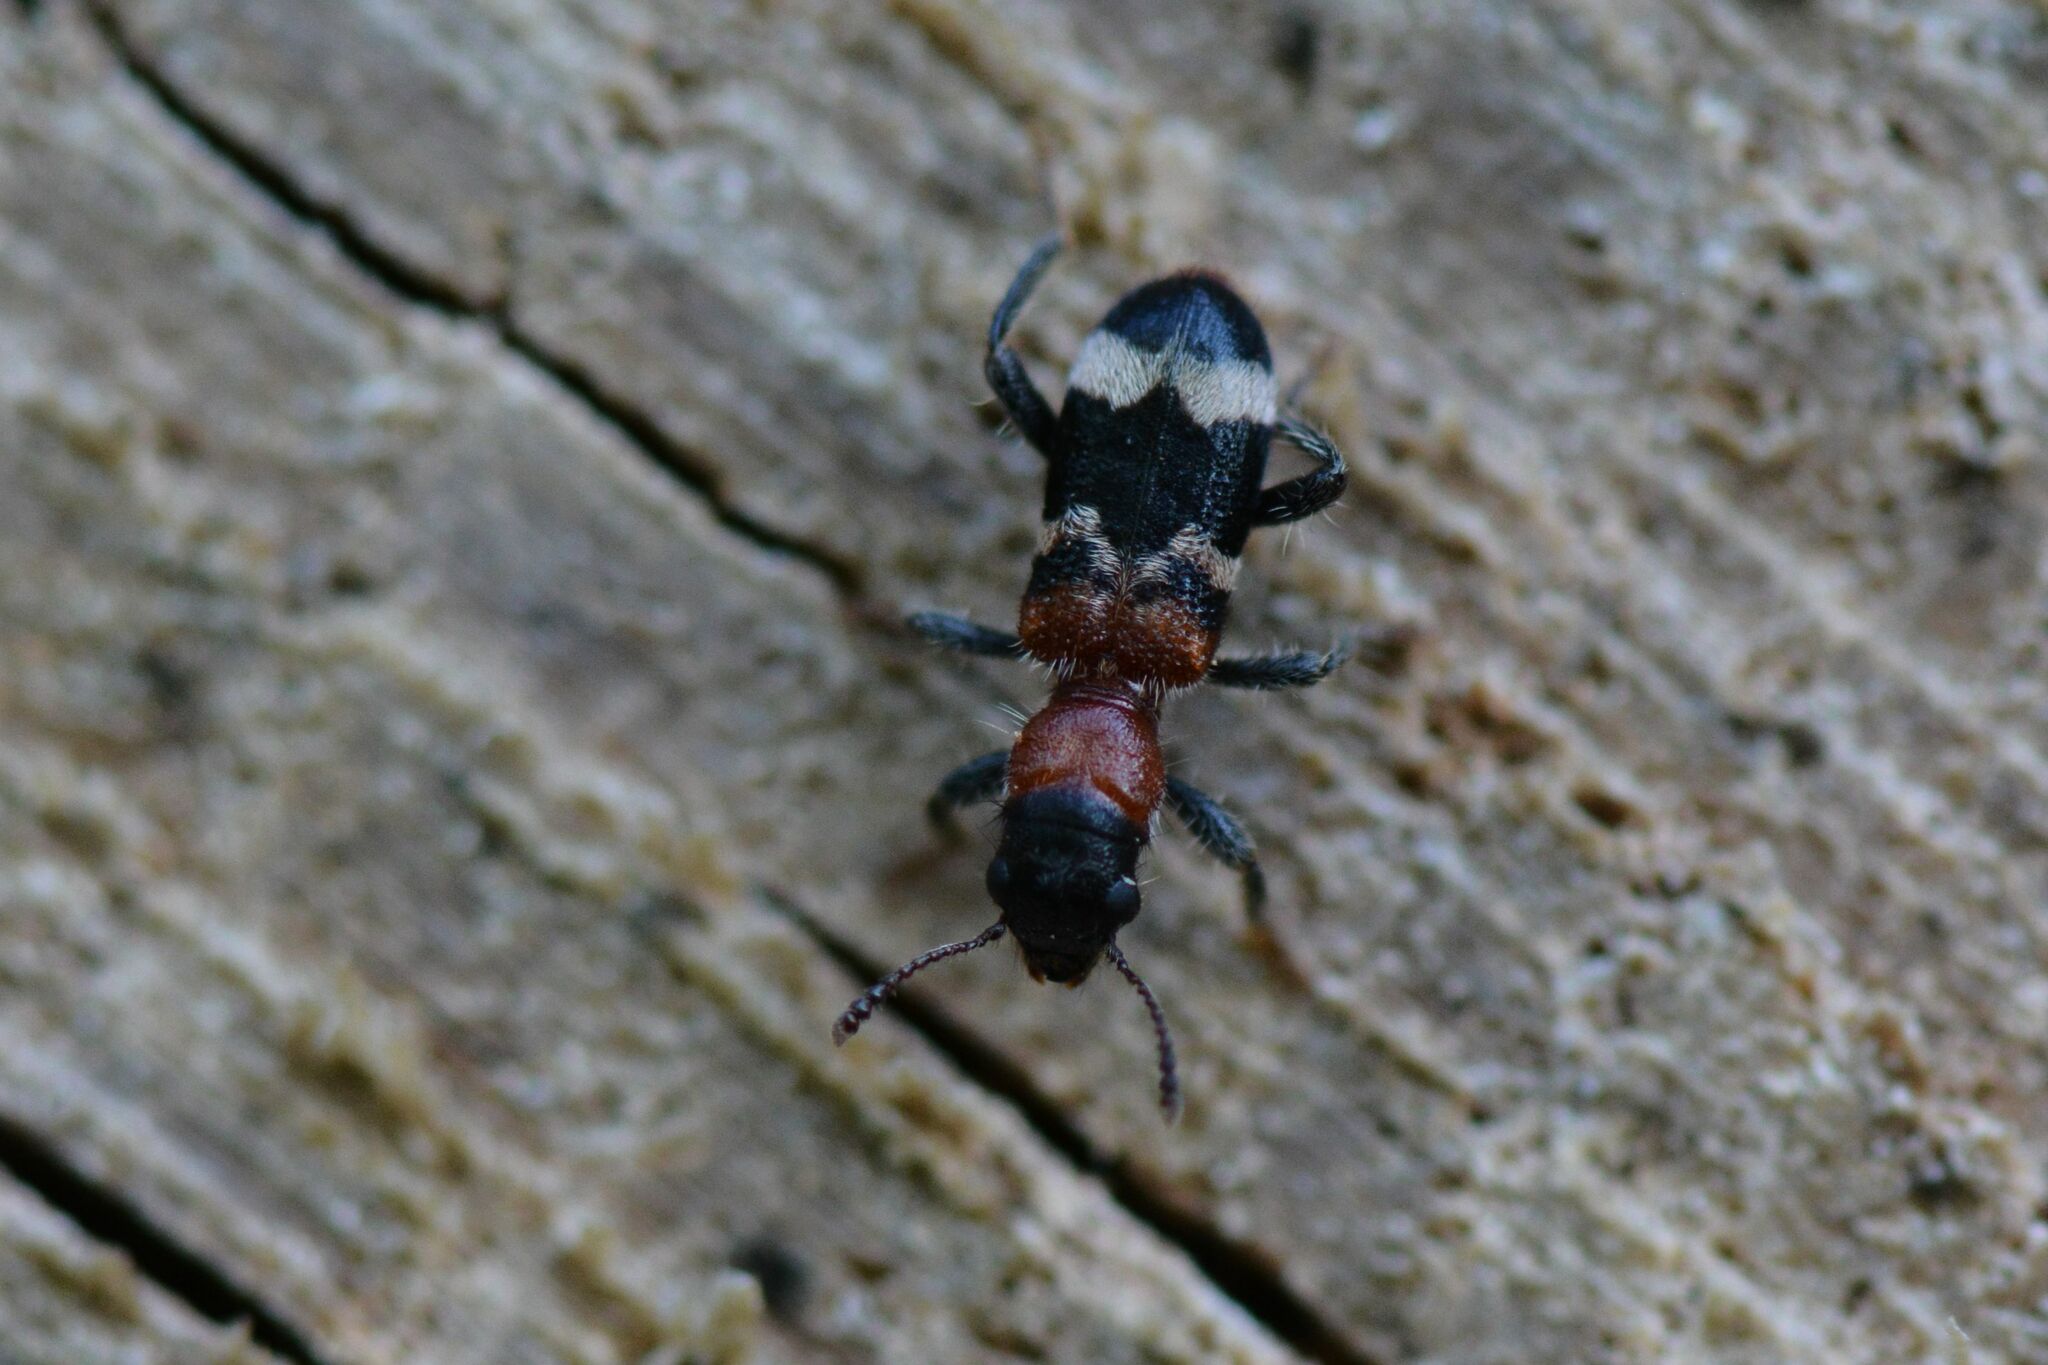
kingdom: Animalia
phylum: Arthropoda
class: Insecta
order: Coleoptera
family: Cleridae
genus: Thanasimus
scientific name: Thanasimus formicarius
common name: Ant beetle
